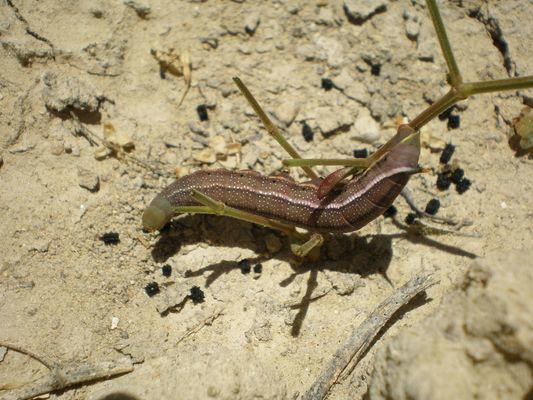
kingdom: Animalia
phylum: Arthropoda
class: Insecta
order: Lepidoptera
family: Sphingidae
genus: Macroglossum
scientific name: Macroglossum stellatarum
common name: Humming-bird hawk-moth
